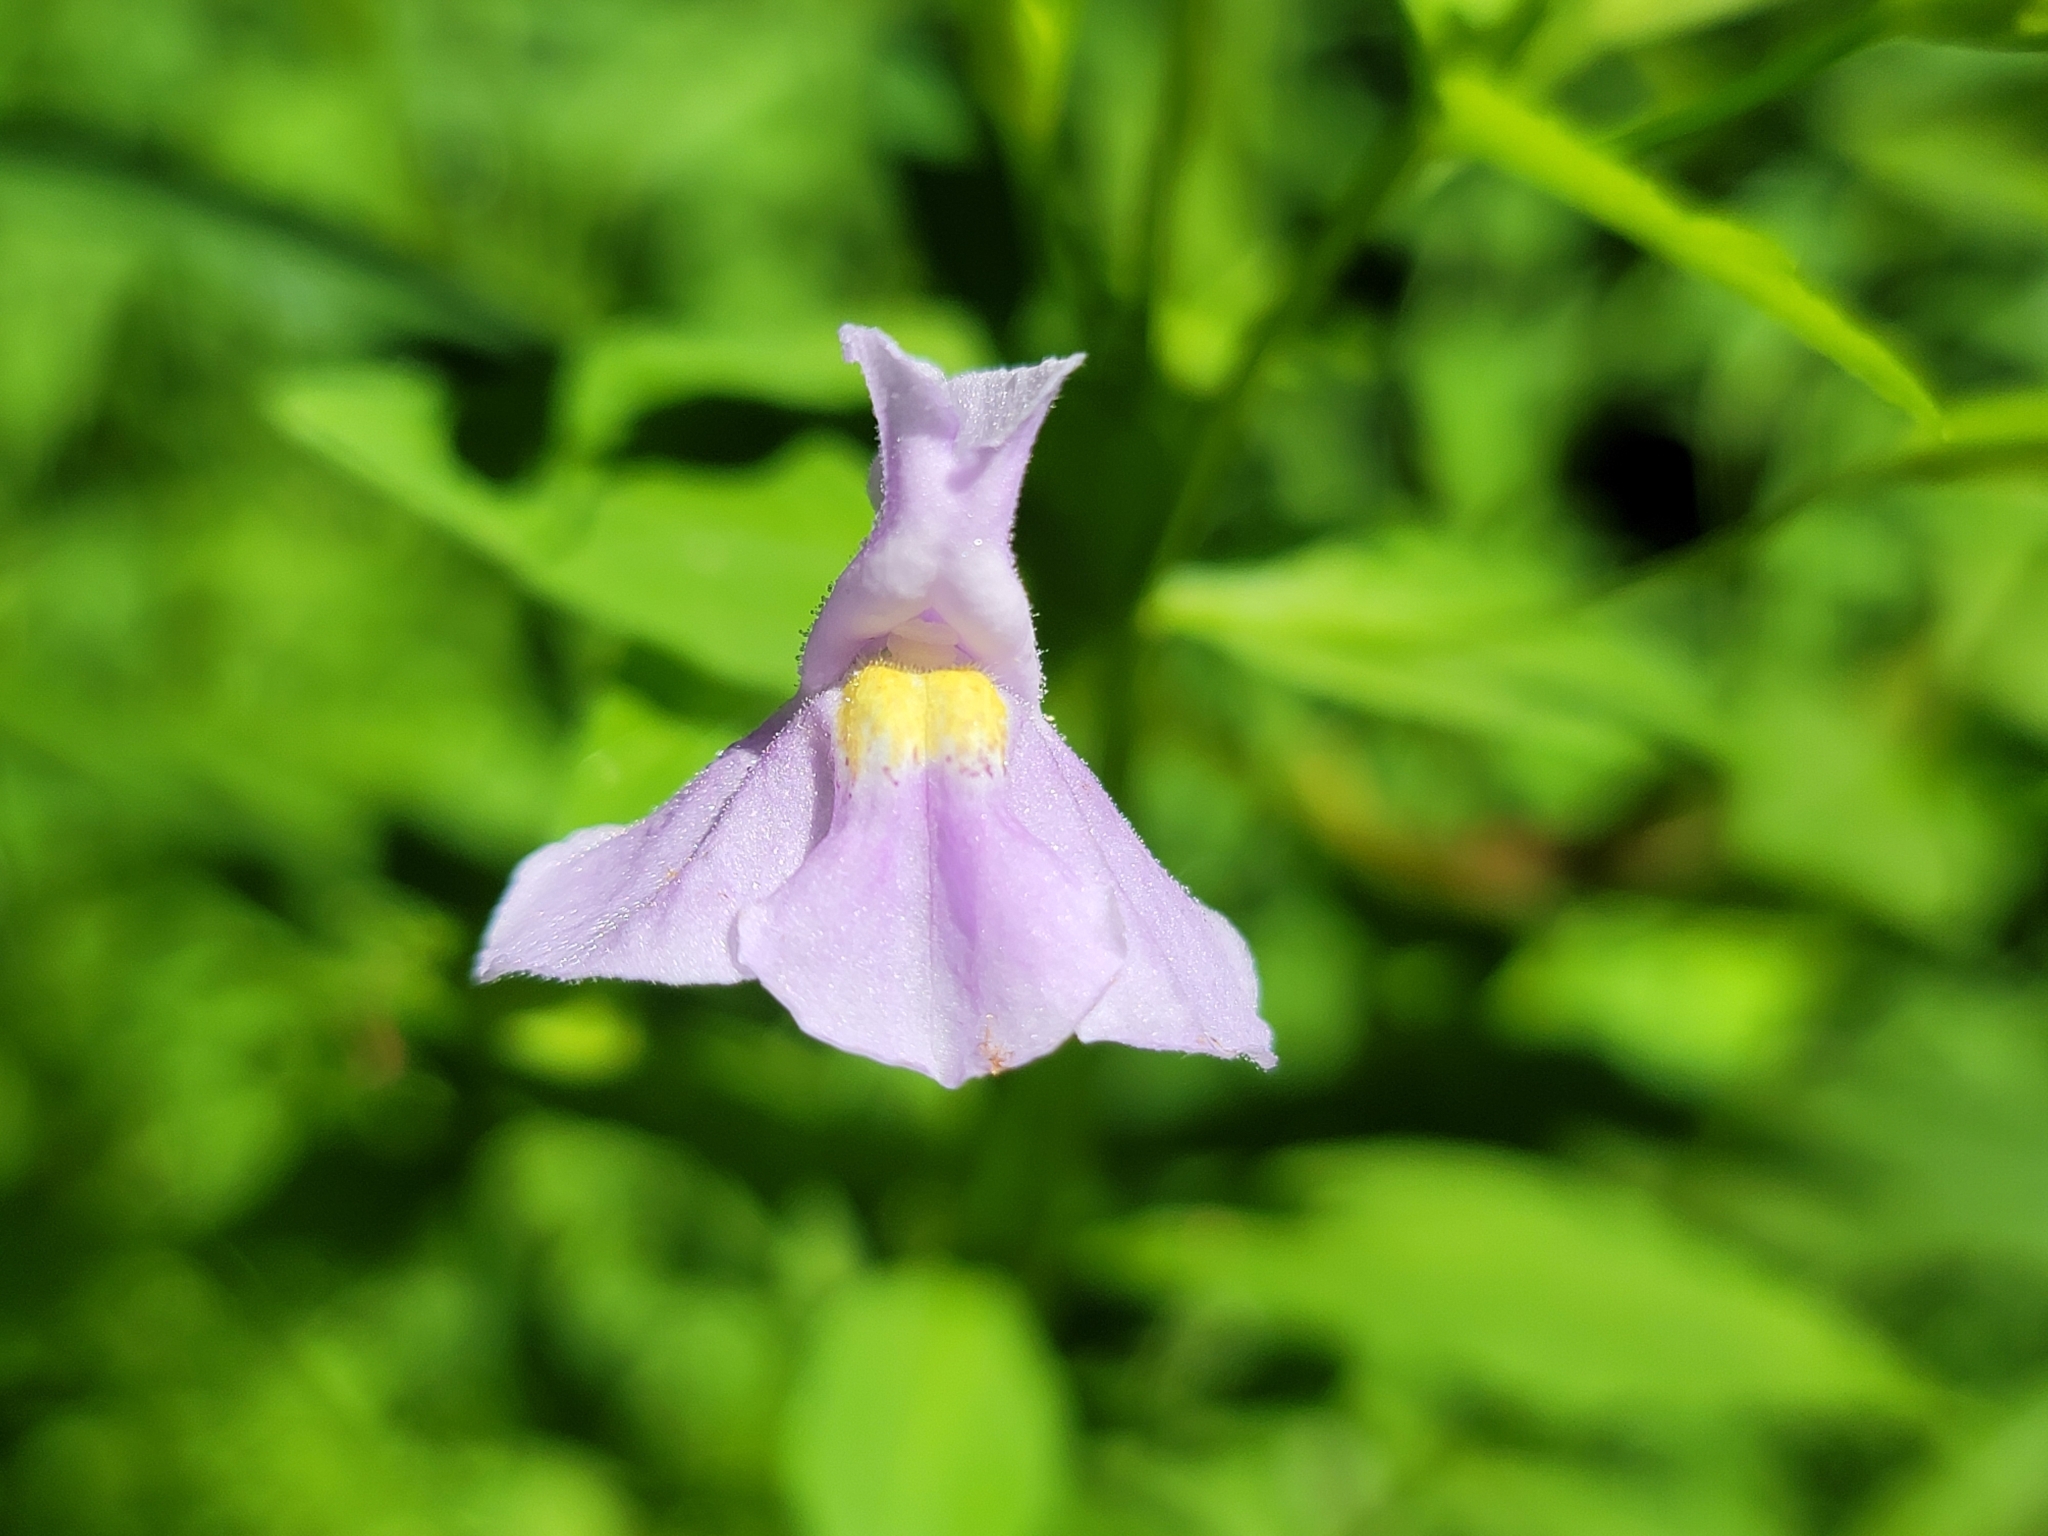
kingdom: Plantae
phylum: Tracheophyta
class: Magnoliopsida
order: Lamiales
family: Phrymaceae
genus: Mimulus
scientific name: Mimulus ringens
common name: Allegheny monkeyflower
